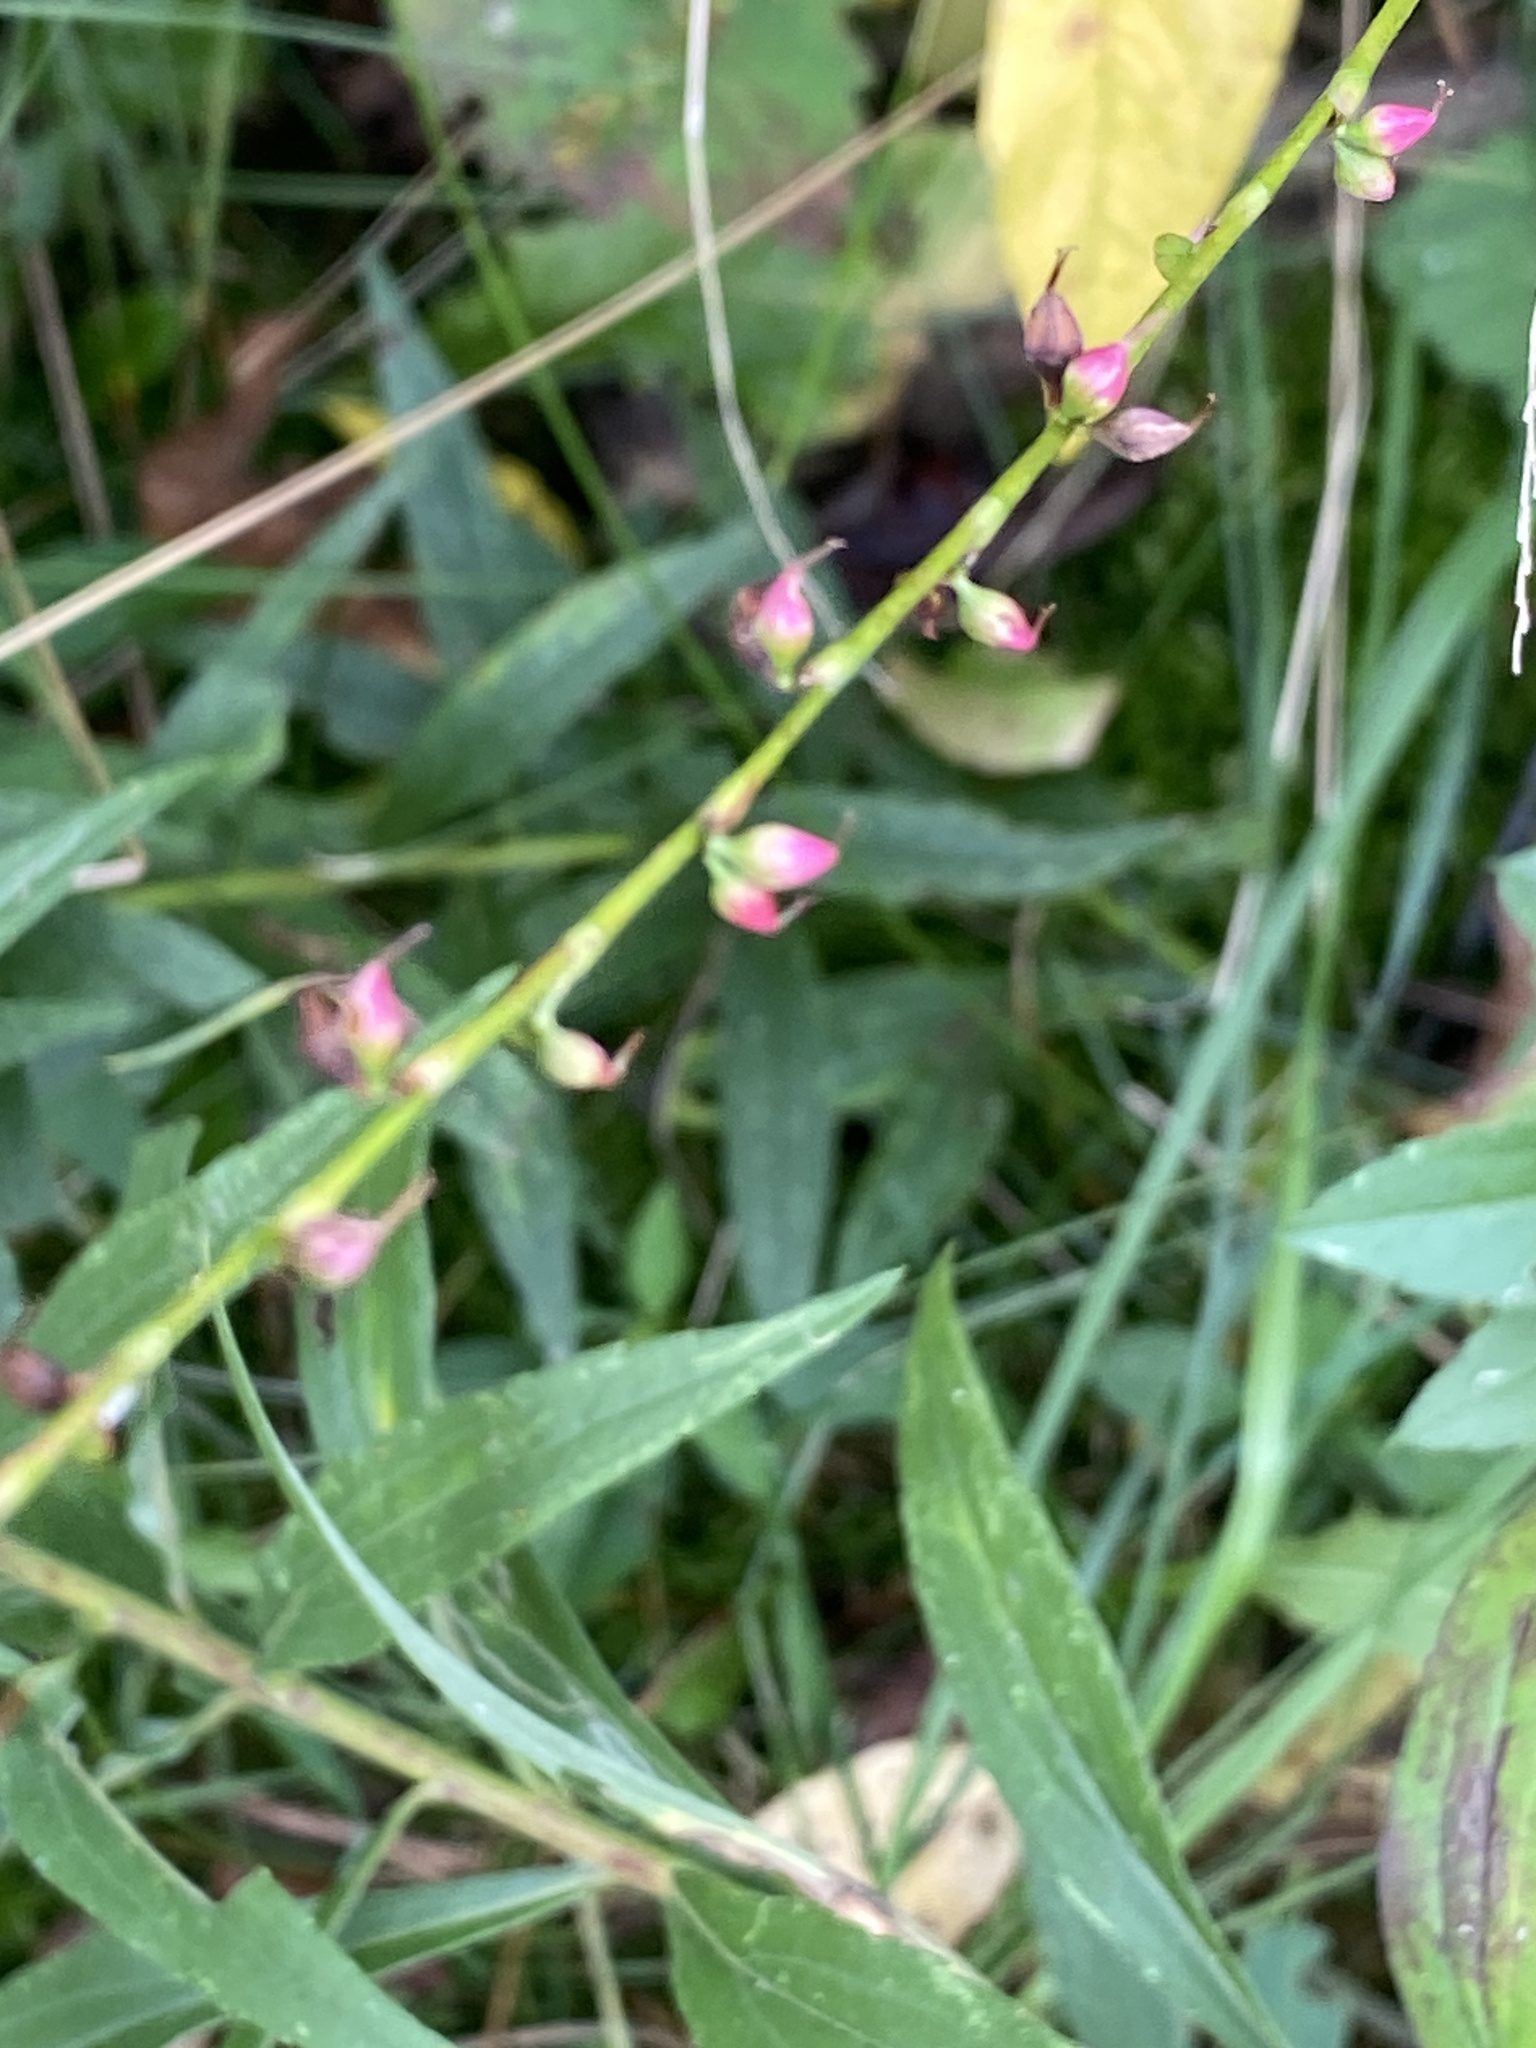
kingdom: Plantae
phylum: Tracheophyta
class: Magnoliopsida
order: Caryophyllales
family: Polygonaceae
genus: Persicaria
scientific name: Persicaria virginiana
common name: Jumpseed
